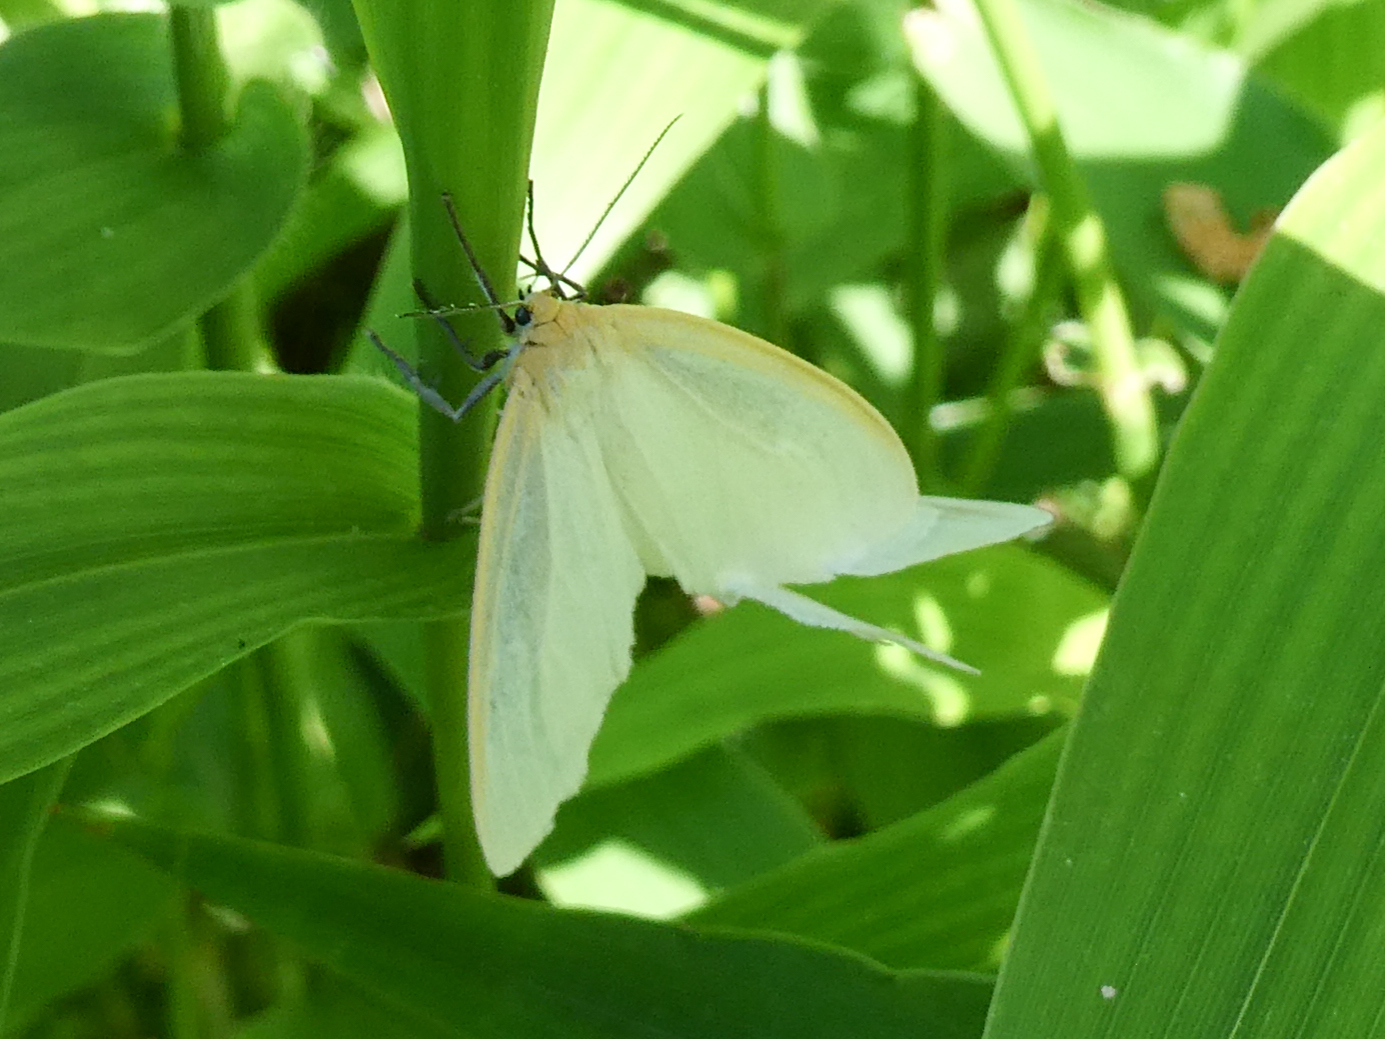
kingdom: Animalia
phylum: Arthropoda
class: Insecta
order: Lepidoptera
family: Erebidae
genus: Cycnia
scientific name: Cycnia tenera
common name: Delicate cycnia moth
